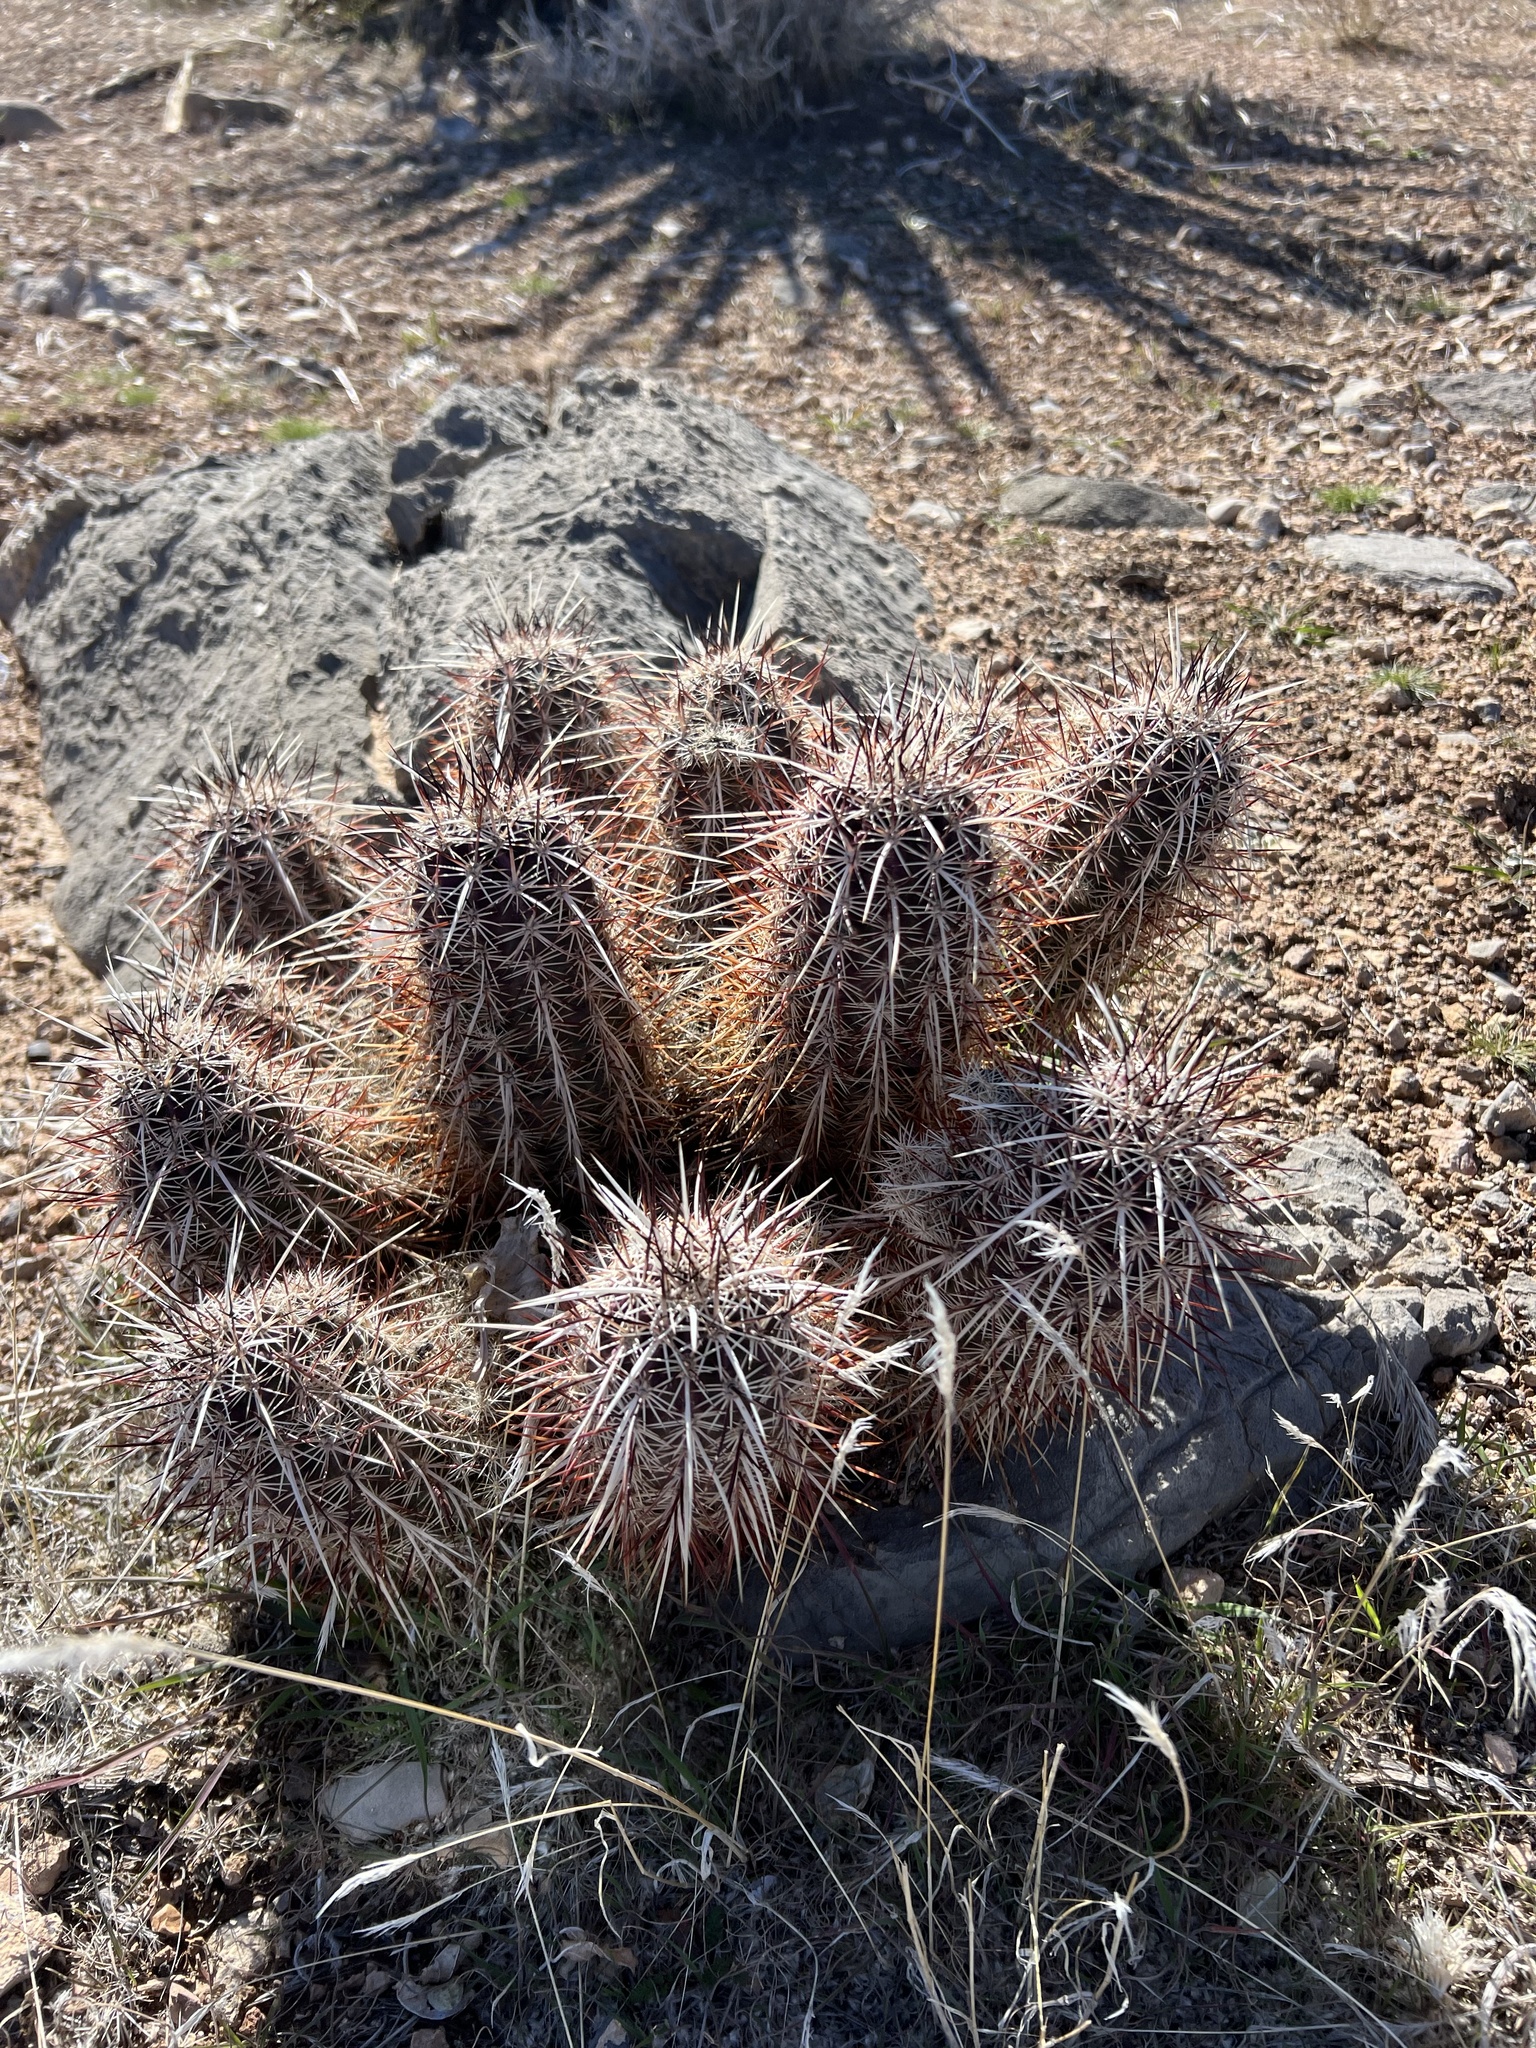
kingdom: Plantae
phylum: Tracheophyta
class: Magnoliopsida
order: Caryophyllales
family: Cactaceae
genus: Echinocereus
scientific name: Echinocereus engelmannii
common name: Engelmann's hedgehog cactus
